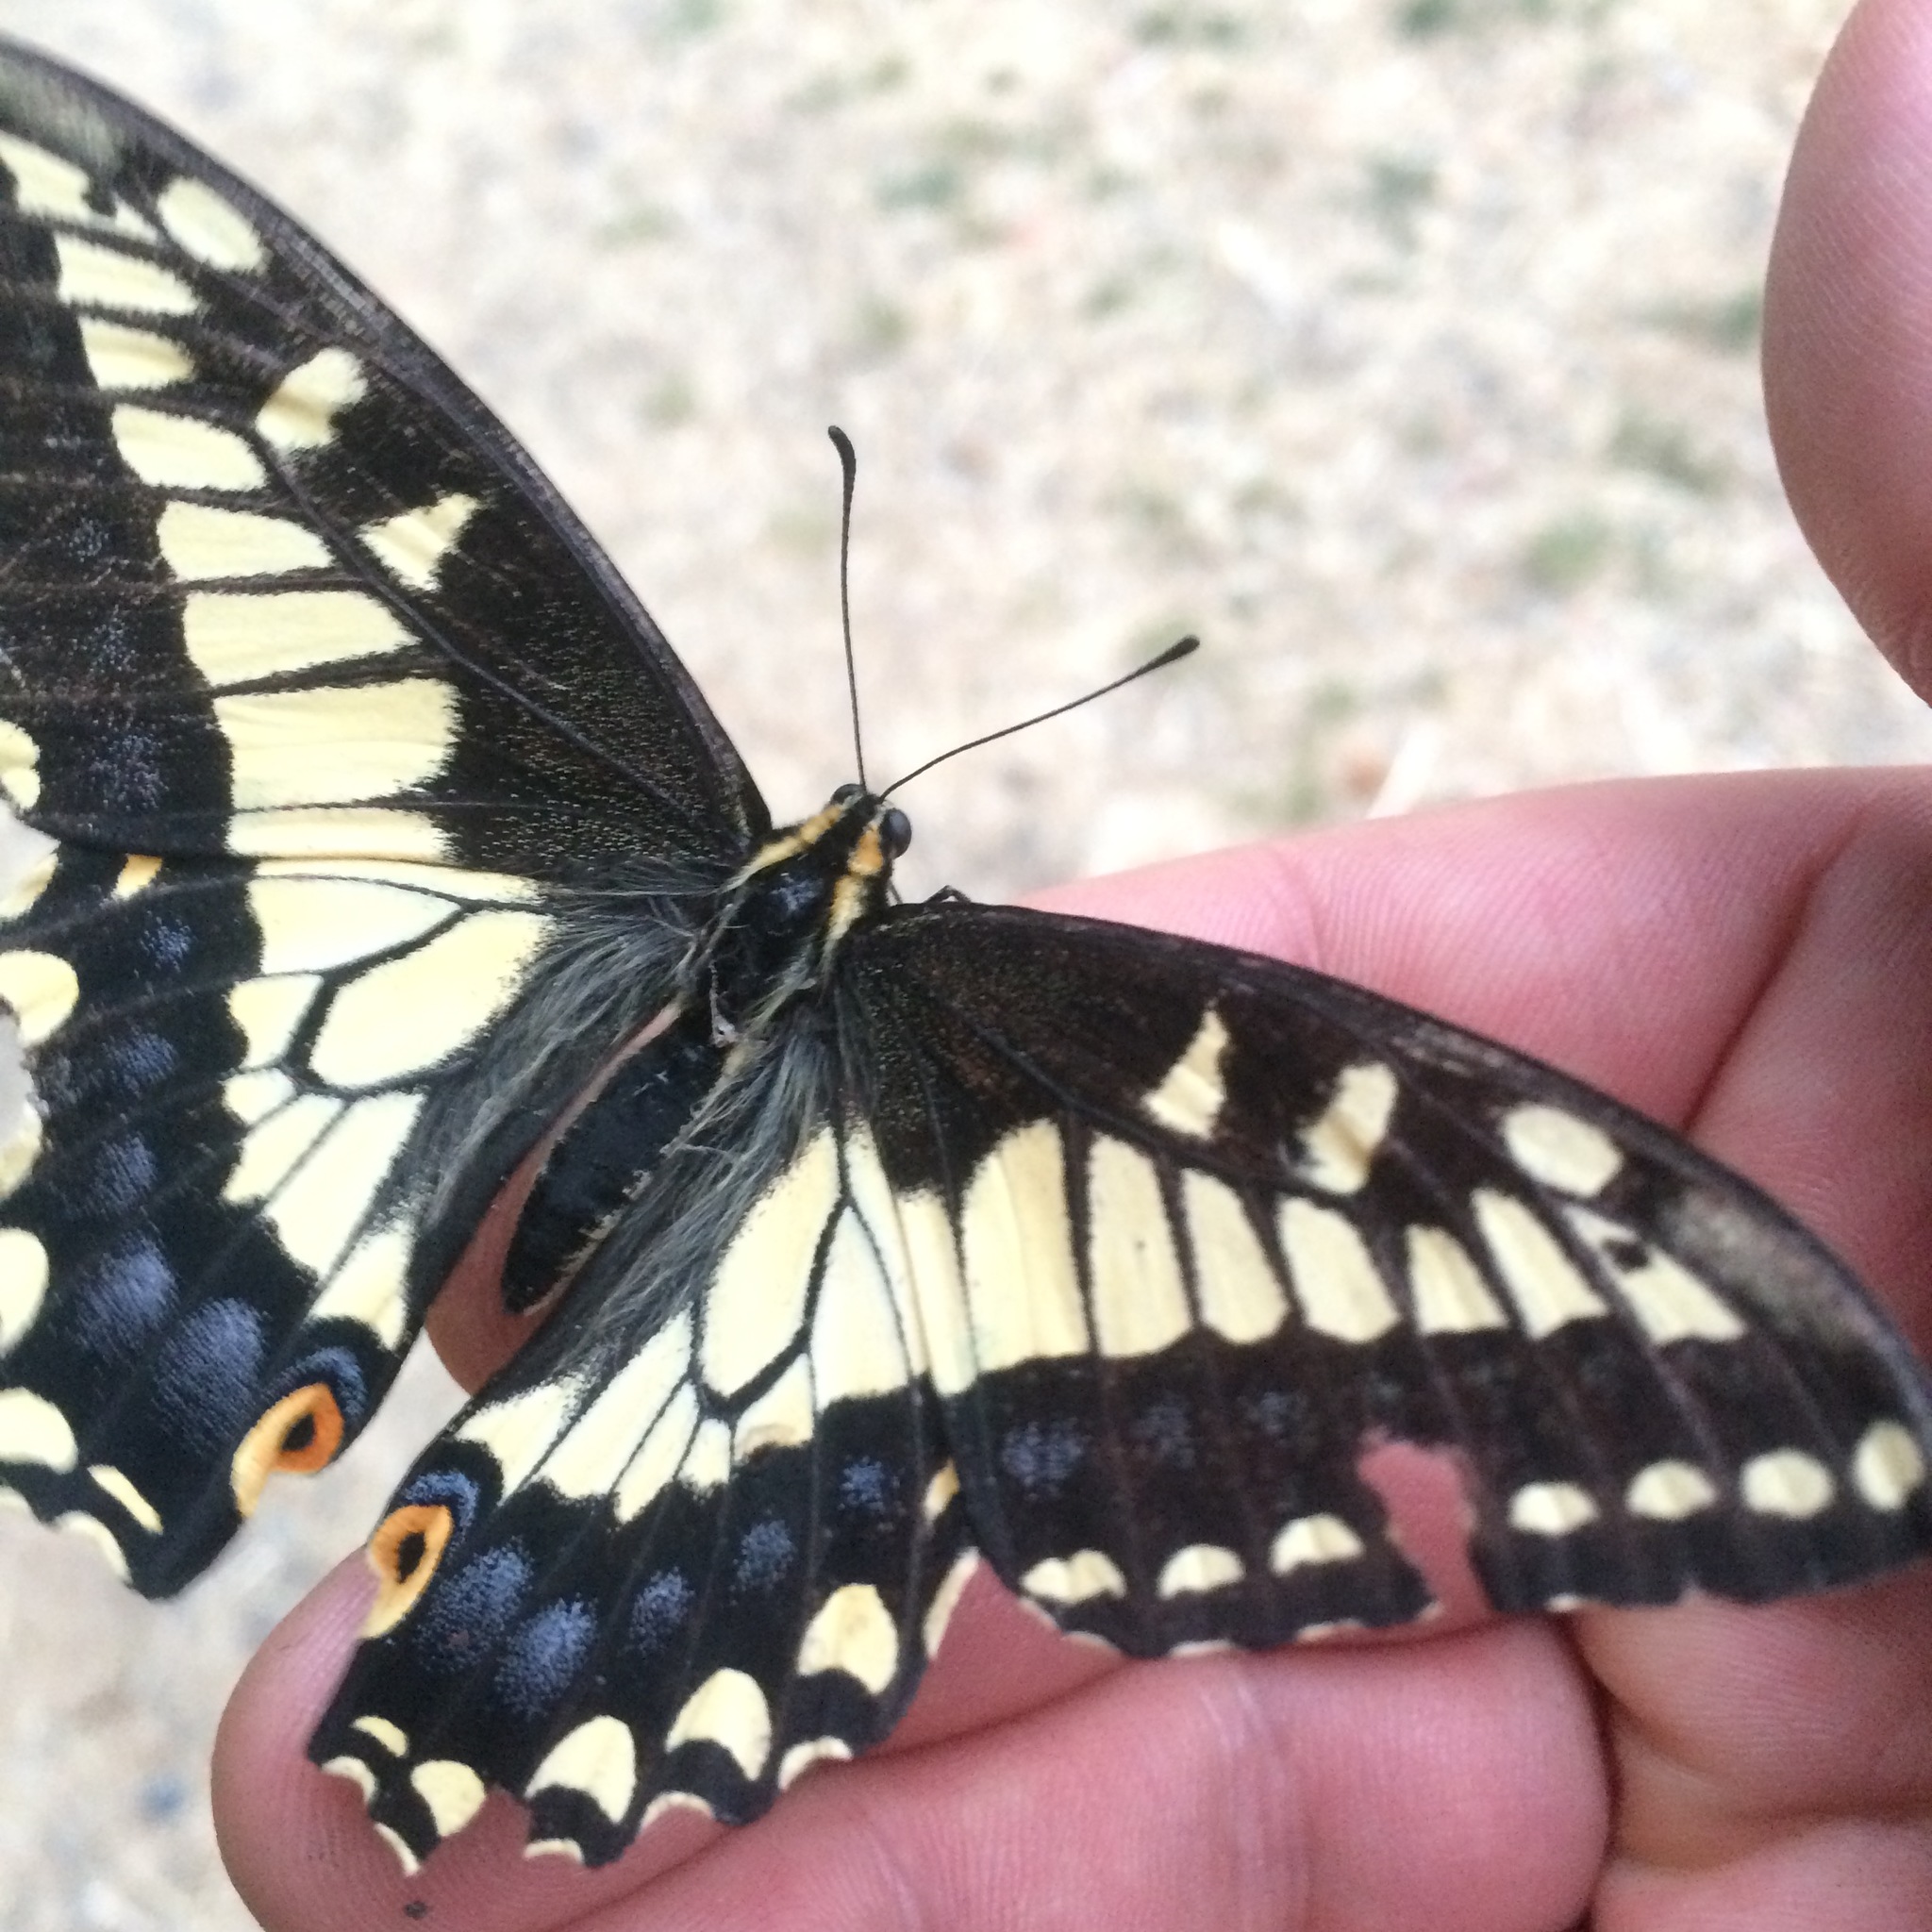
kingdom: Animalia
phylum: Arthropoda
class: Insecta
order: Lepidoptera
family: Papilionidae
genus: Papilio
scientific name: Papilio zelicaon
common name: Anise swallowtail
